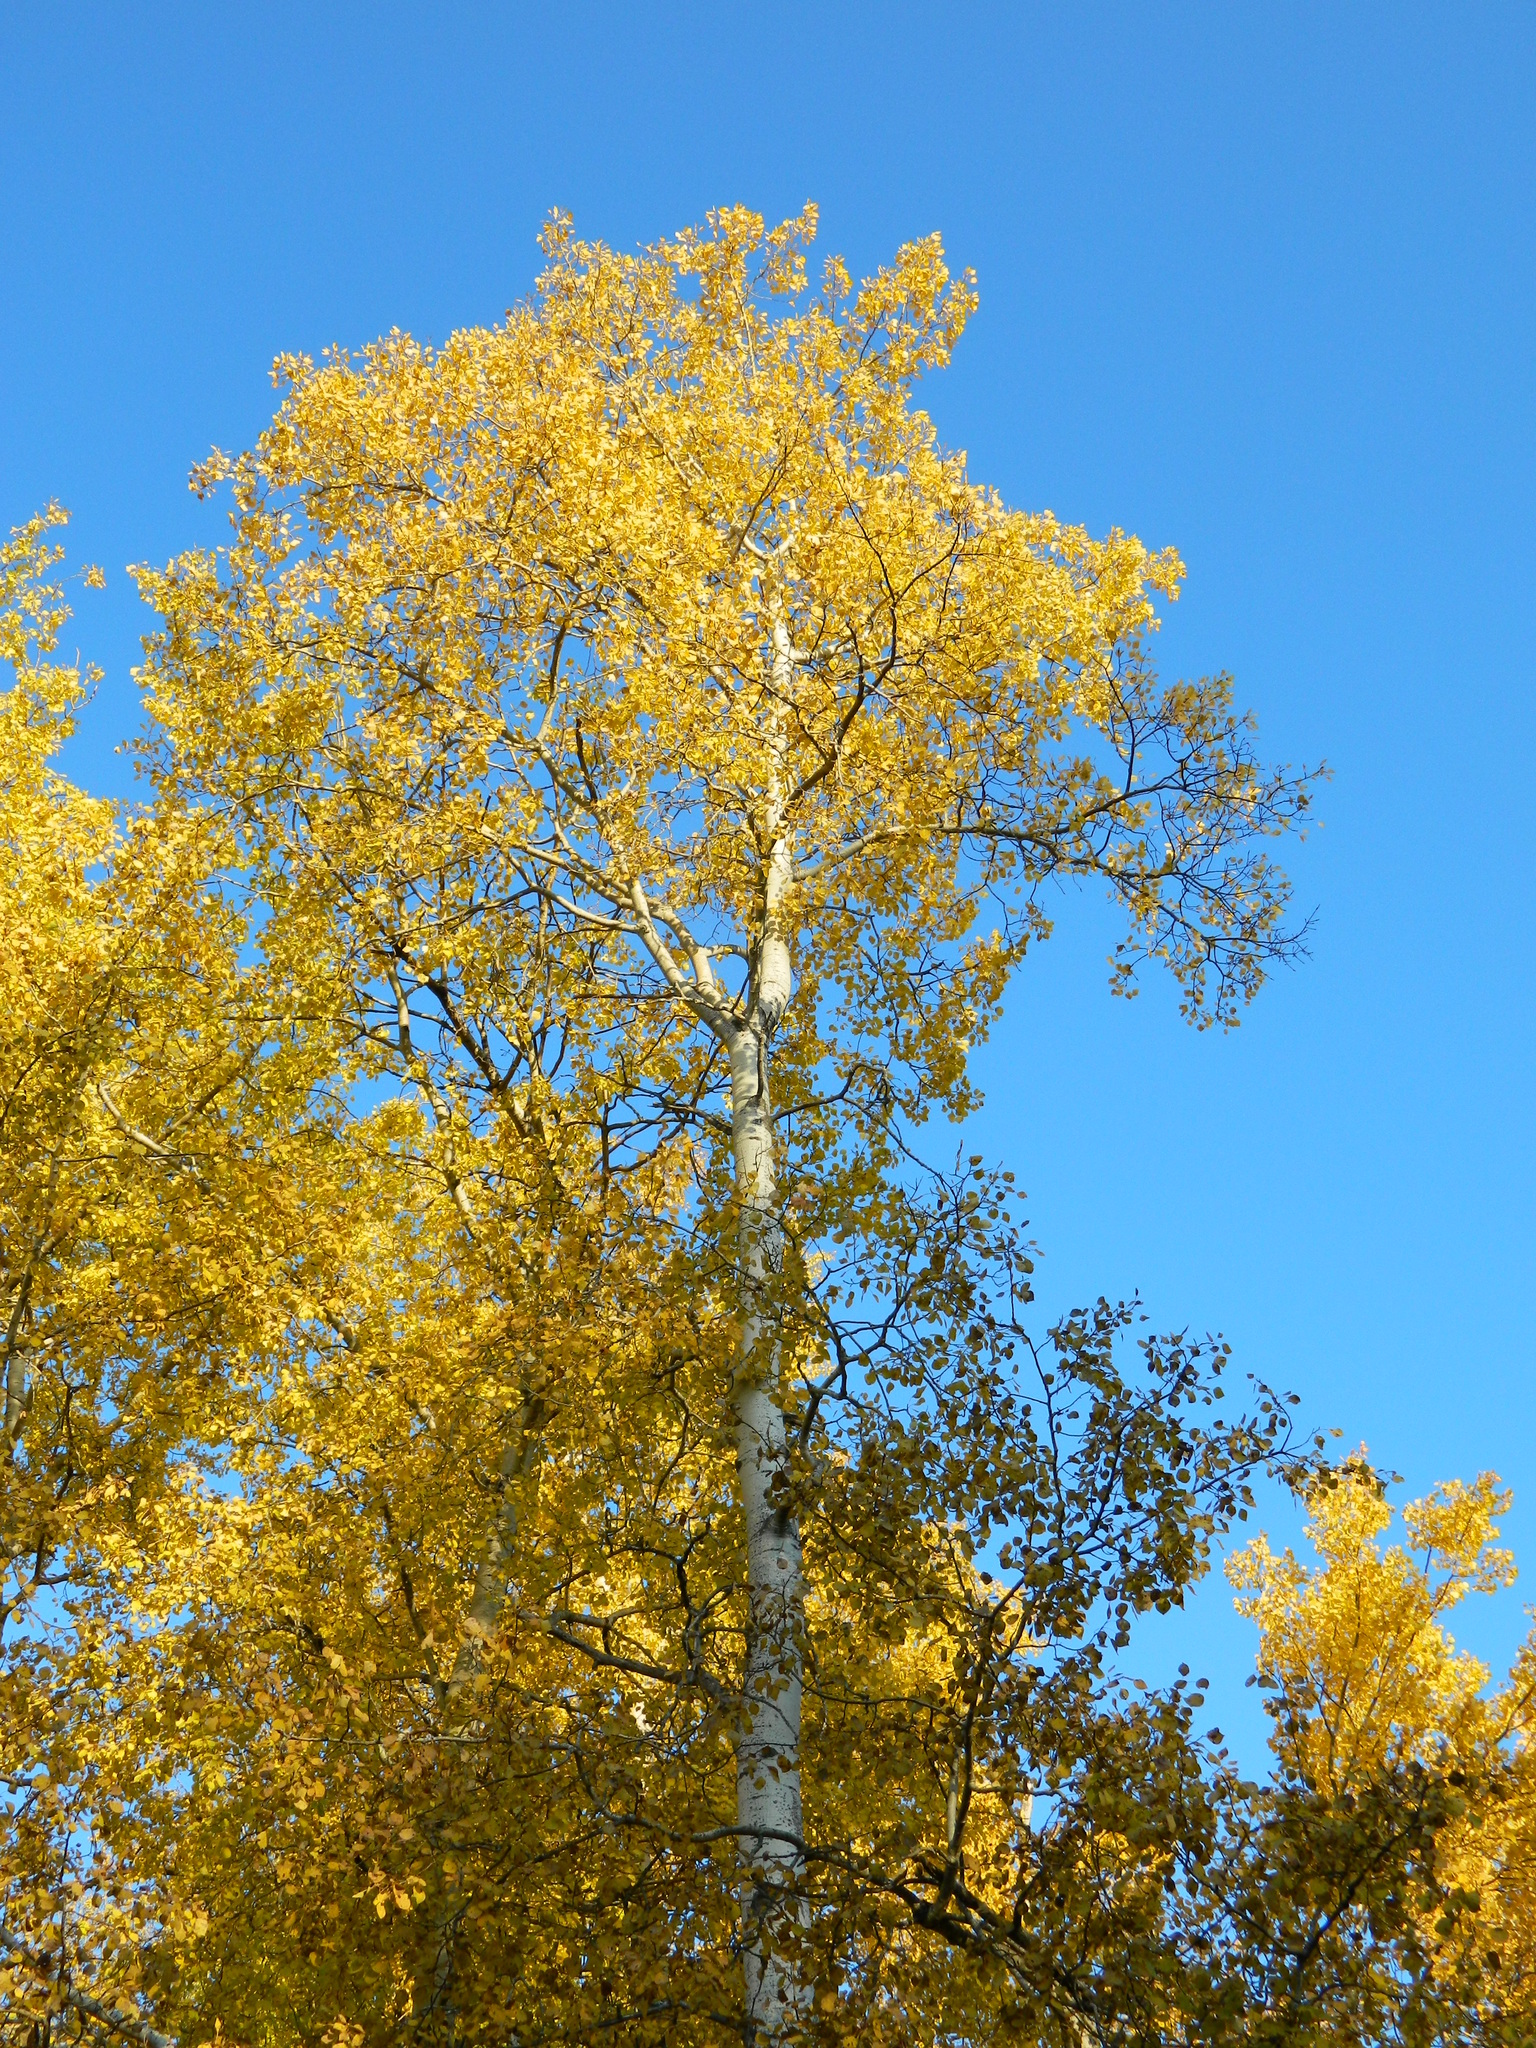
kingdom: Plantae
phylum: Tracheophyta
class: Magnoliopsida
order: Malpighiales
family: Salicaceae
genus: Populus
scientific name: Populus tremuloides
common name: Quaking aspen
